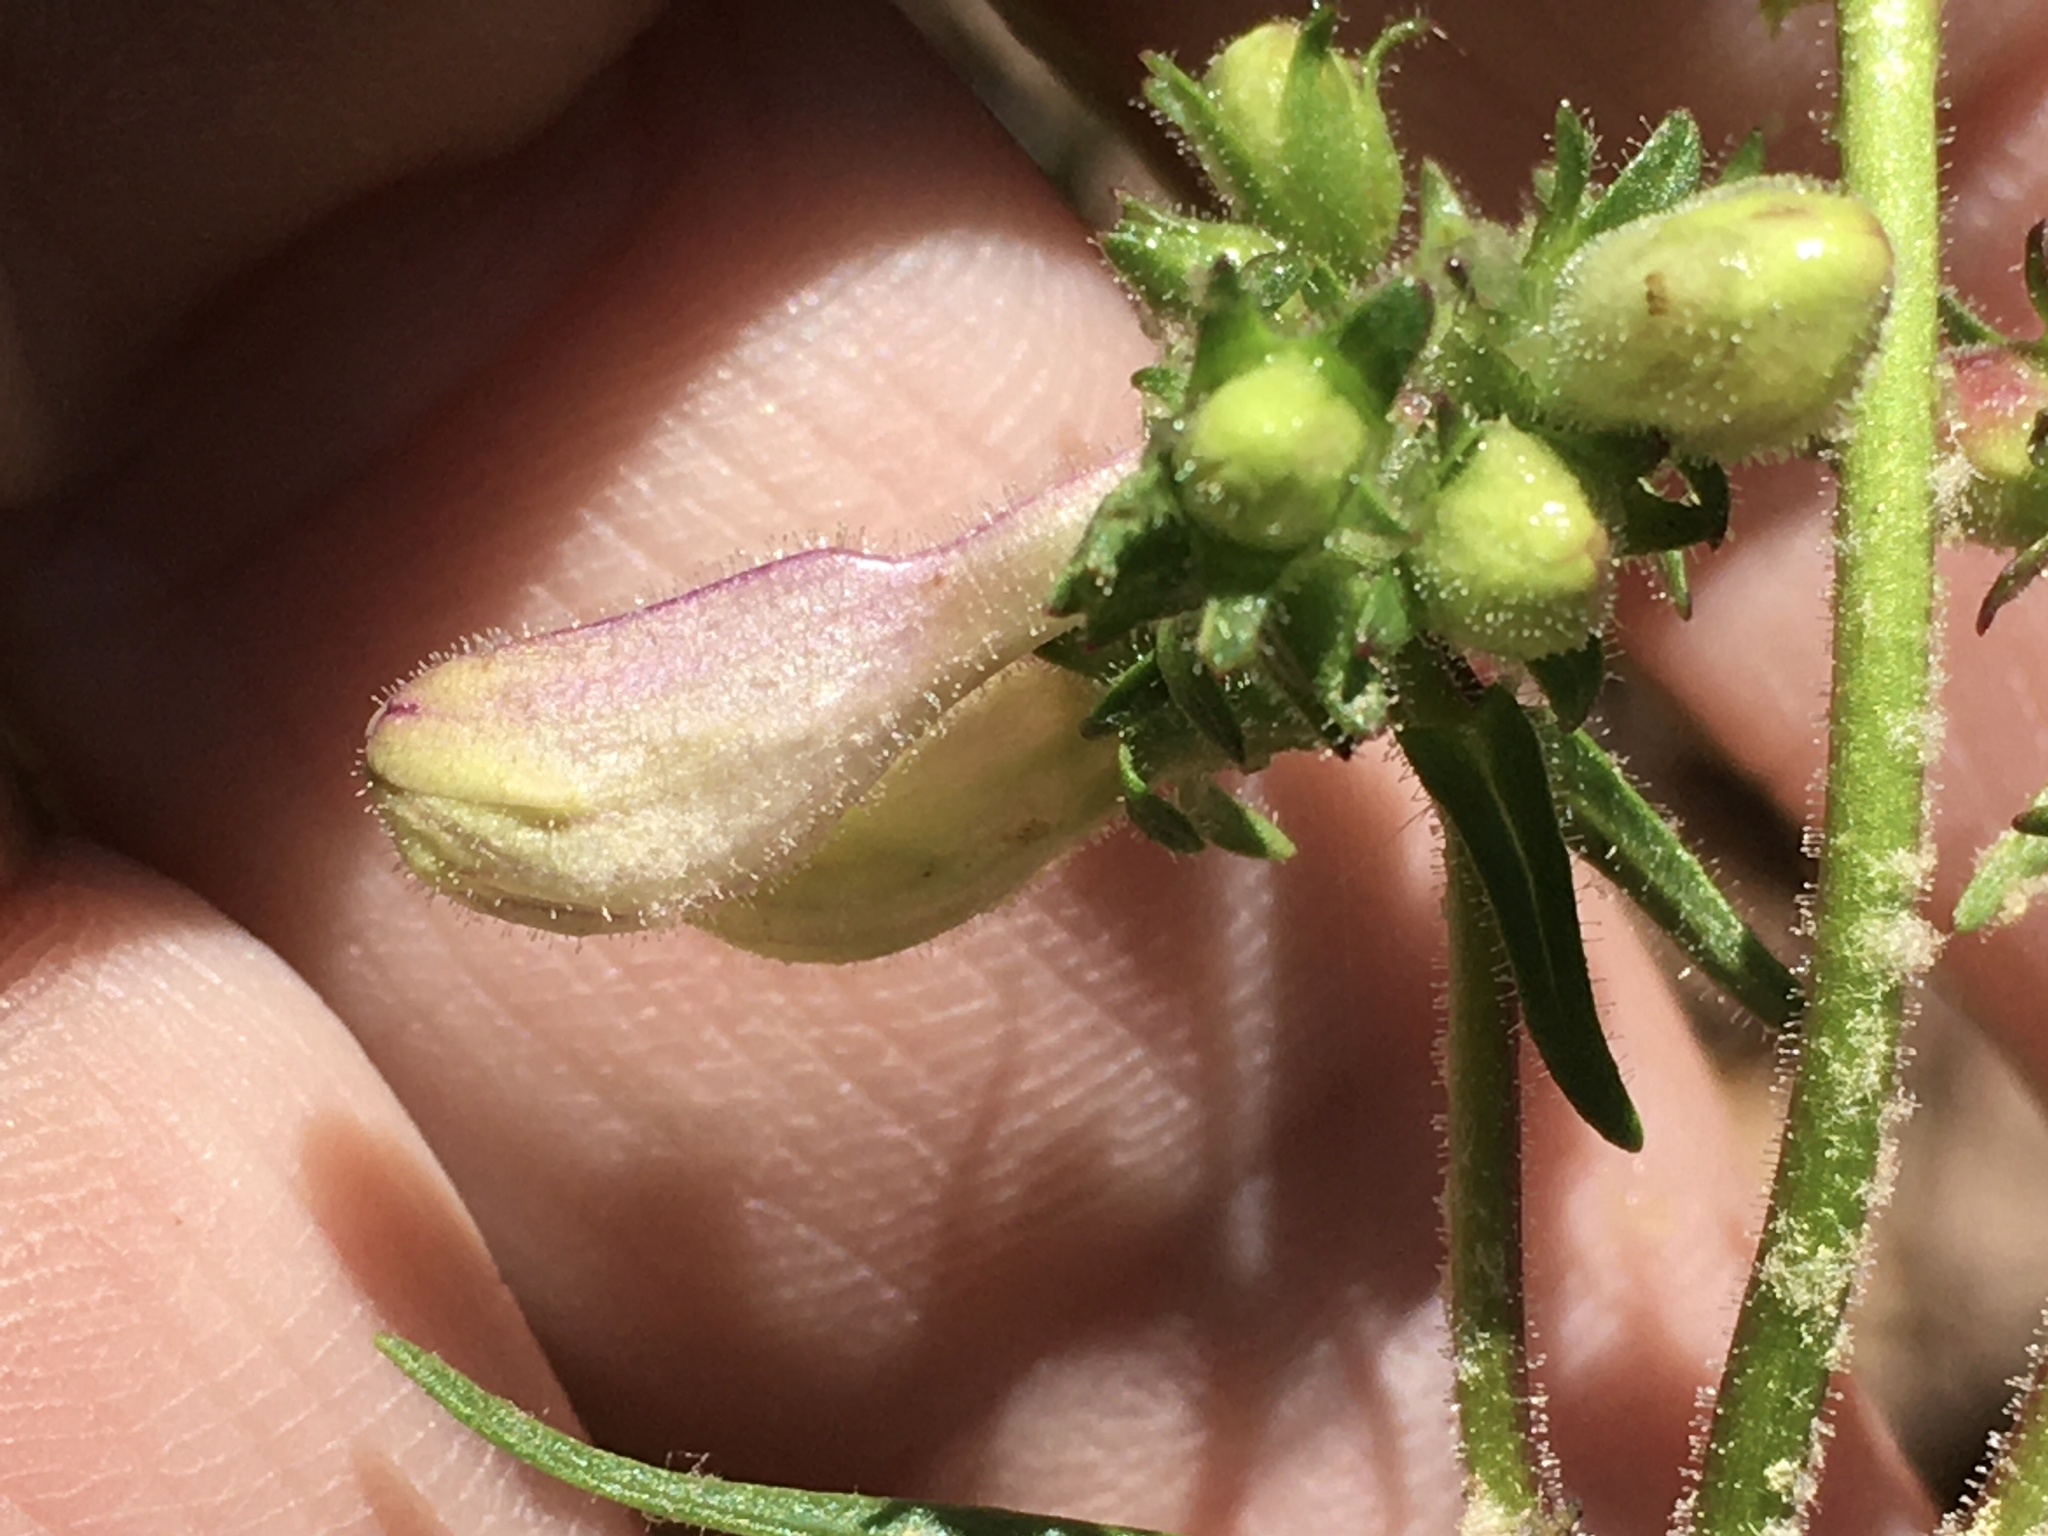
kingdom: Plantae
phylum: Tracheophyta
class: Magnoliopsida
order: Lamiales
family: Plantaginaceae
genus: Penstemon
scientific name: Penstemon laevigatus
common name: Eastern beardtongue
